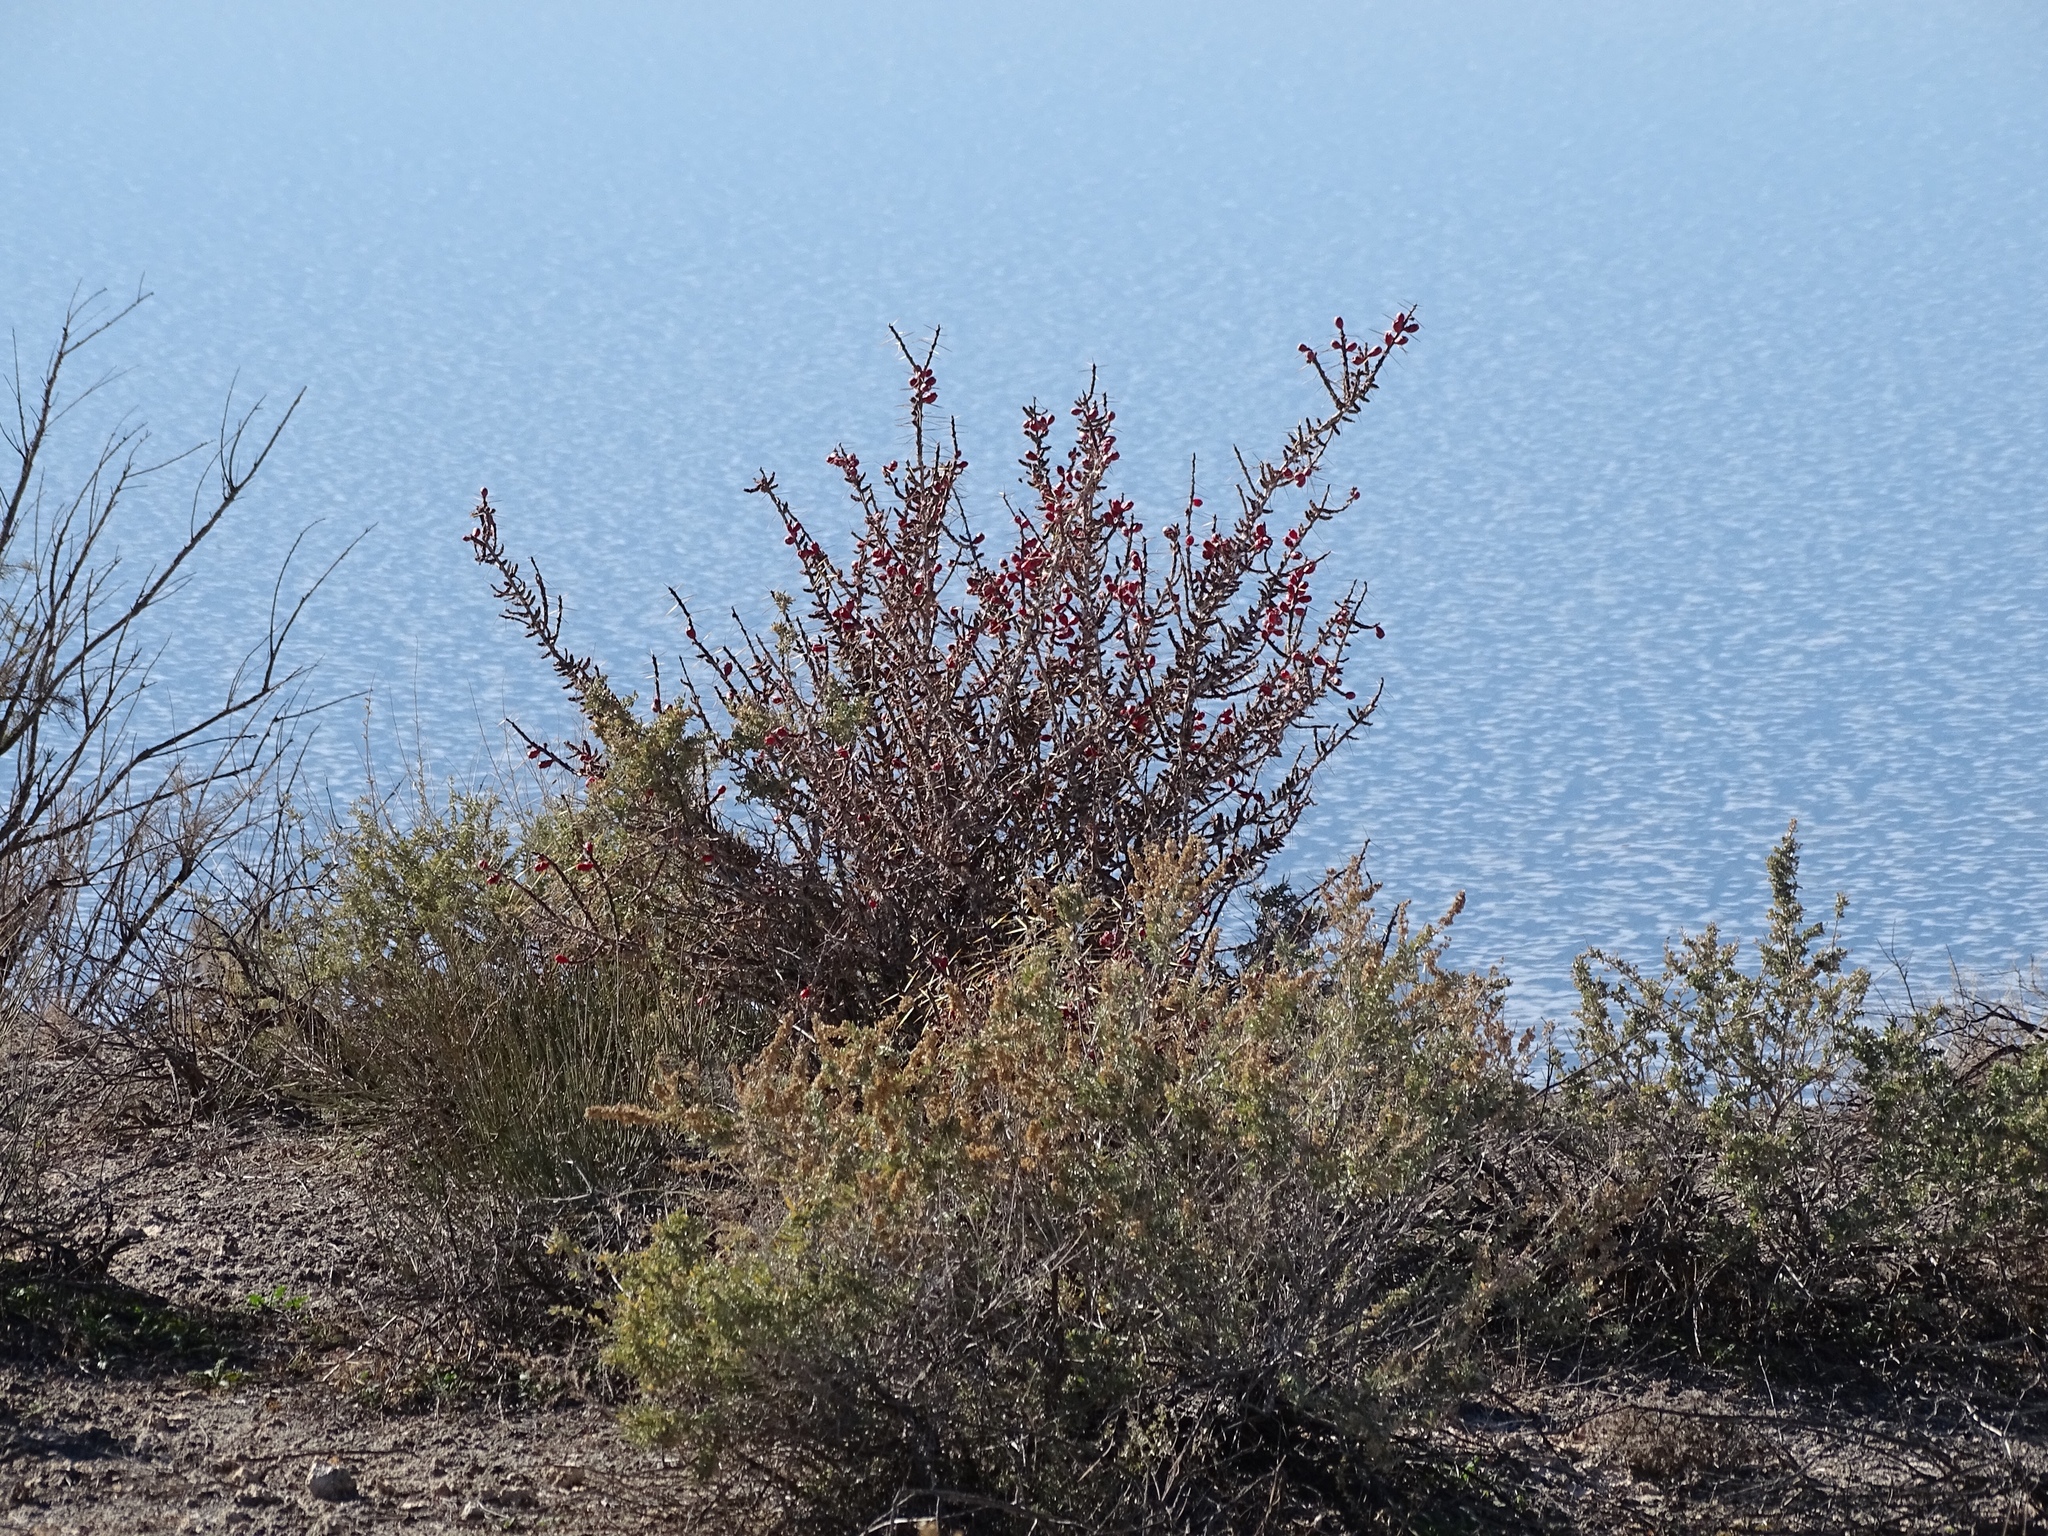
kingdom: Plantae
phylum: Tracheophyta
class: Magnoliopsida
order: Caryophyllales
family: Cactaceae
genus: Cylindropuntia
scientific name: Cylindropuntia leptocaulis
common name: Christmas cactus
